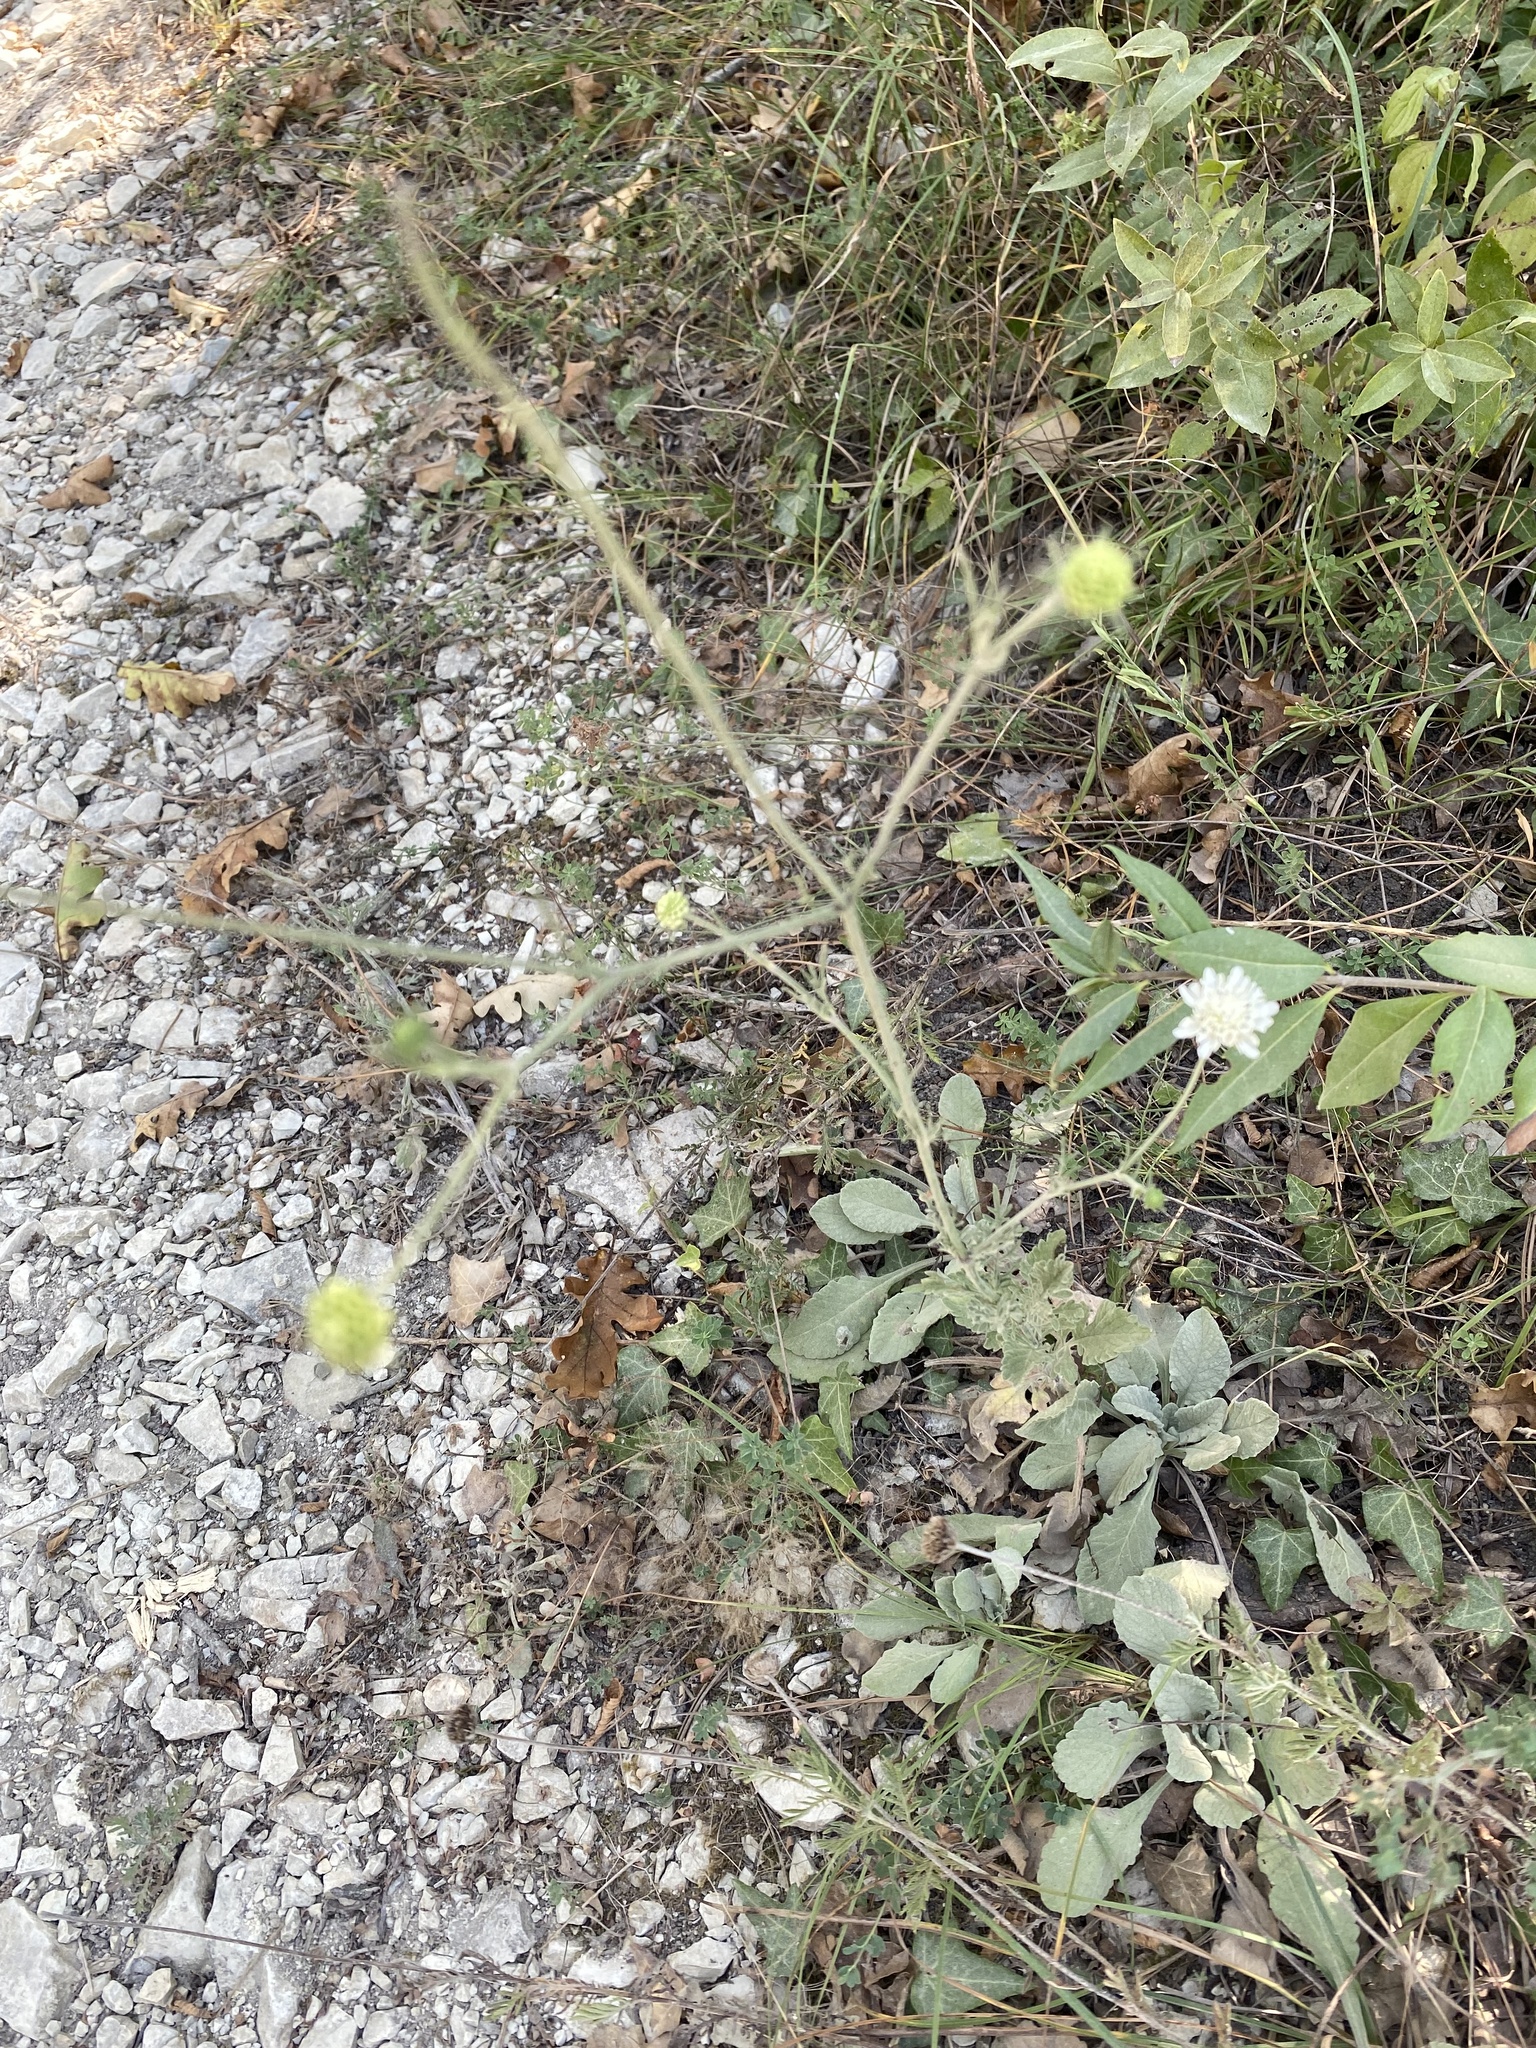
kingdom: Plantae
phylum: Tracheophyta
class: Magnoliopsida
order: Dipsacales
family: Caprifoliaceae
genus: Scabiosa
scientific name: Scabiosa ochroleuca
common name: Cream pincushions
